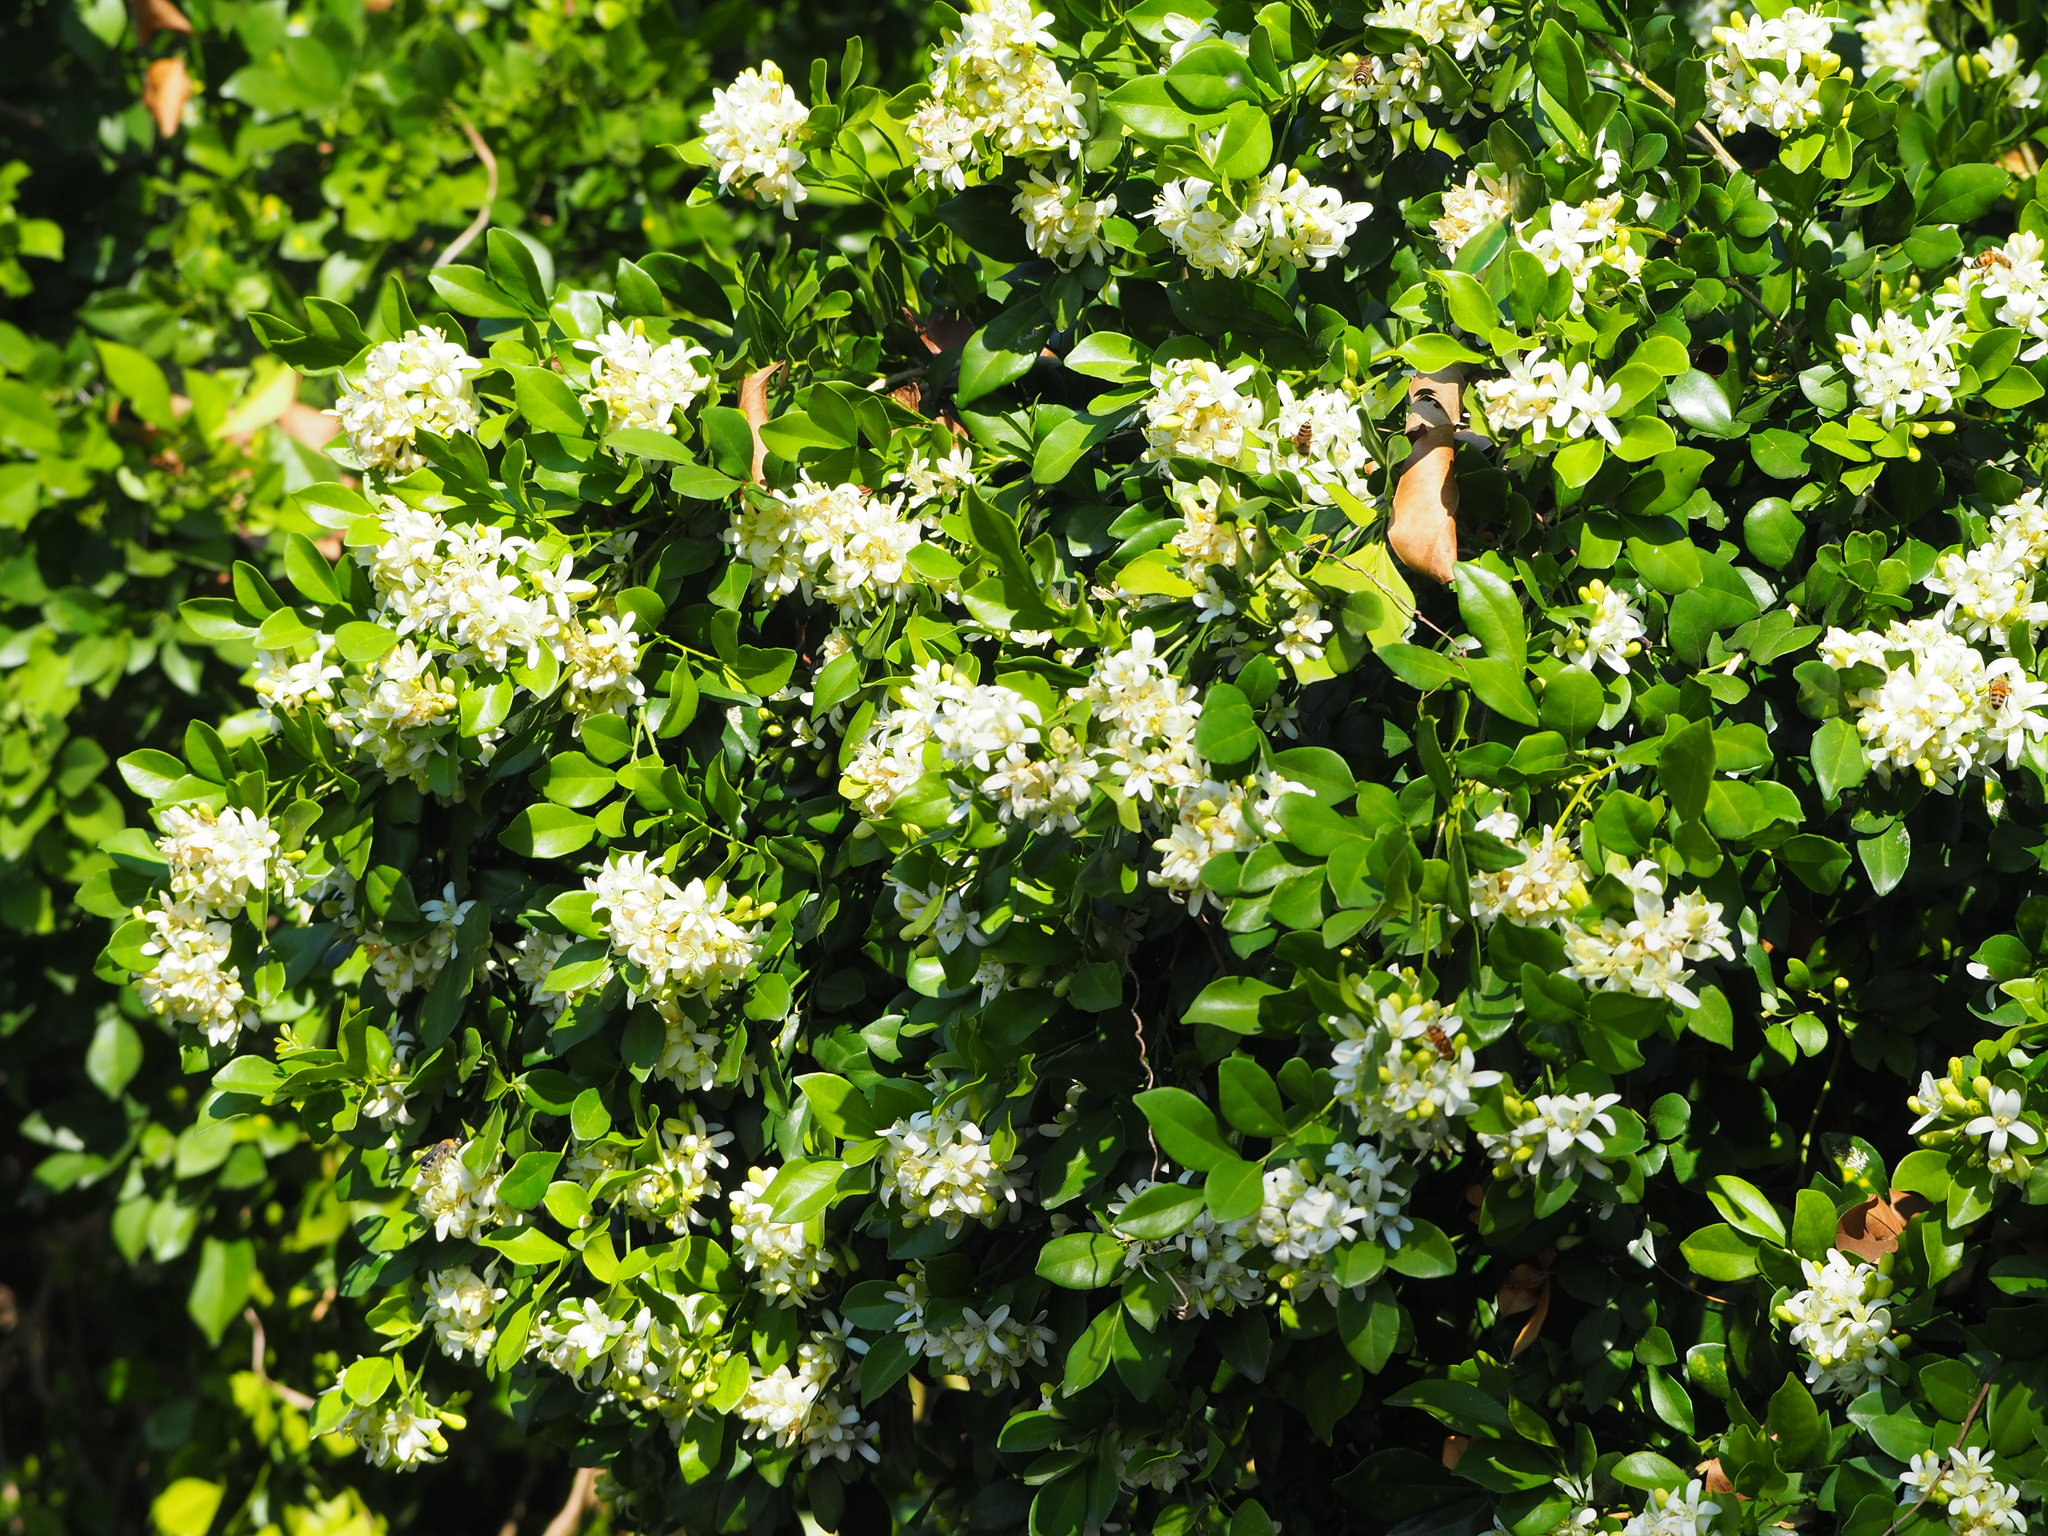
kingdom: Plantae
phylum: Tracheophyta
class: Magnoliopsida
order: Sapindales
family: Rutaceae
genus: Murraya
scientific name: Murraya paniculata
